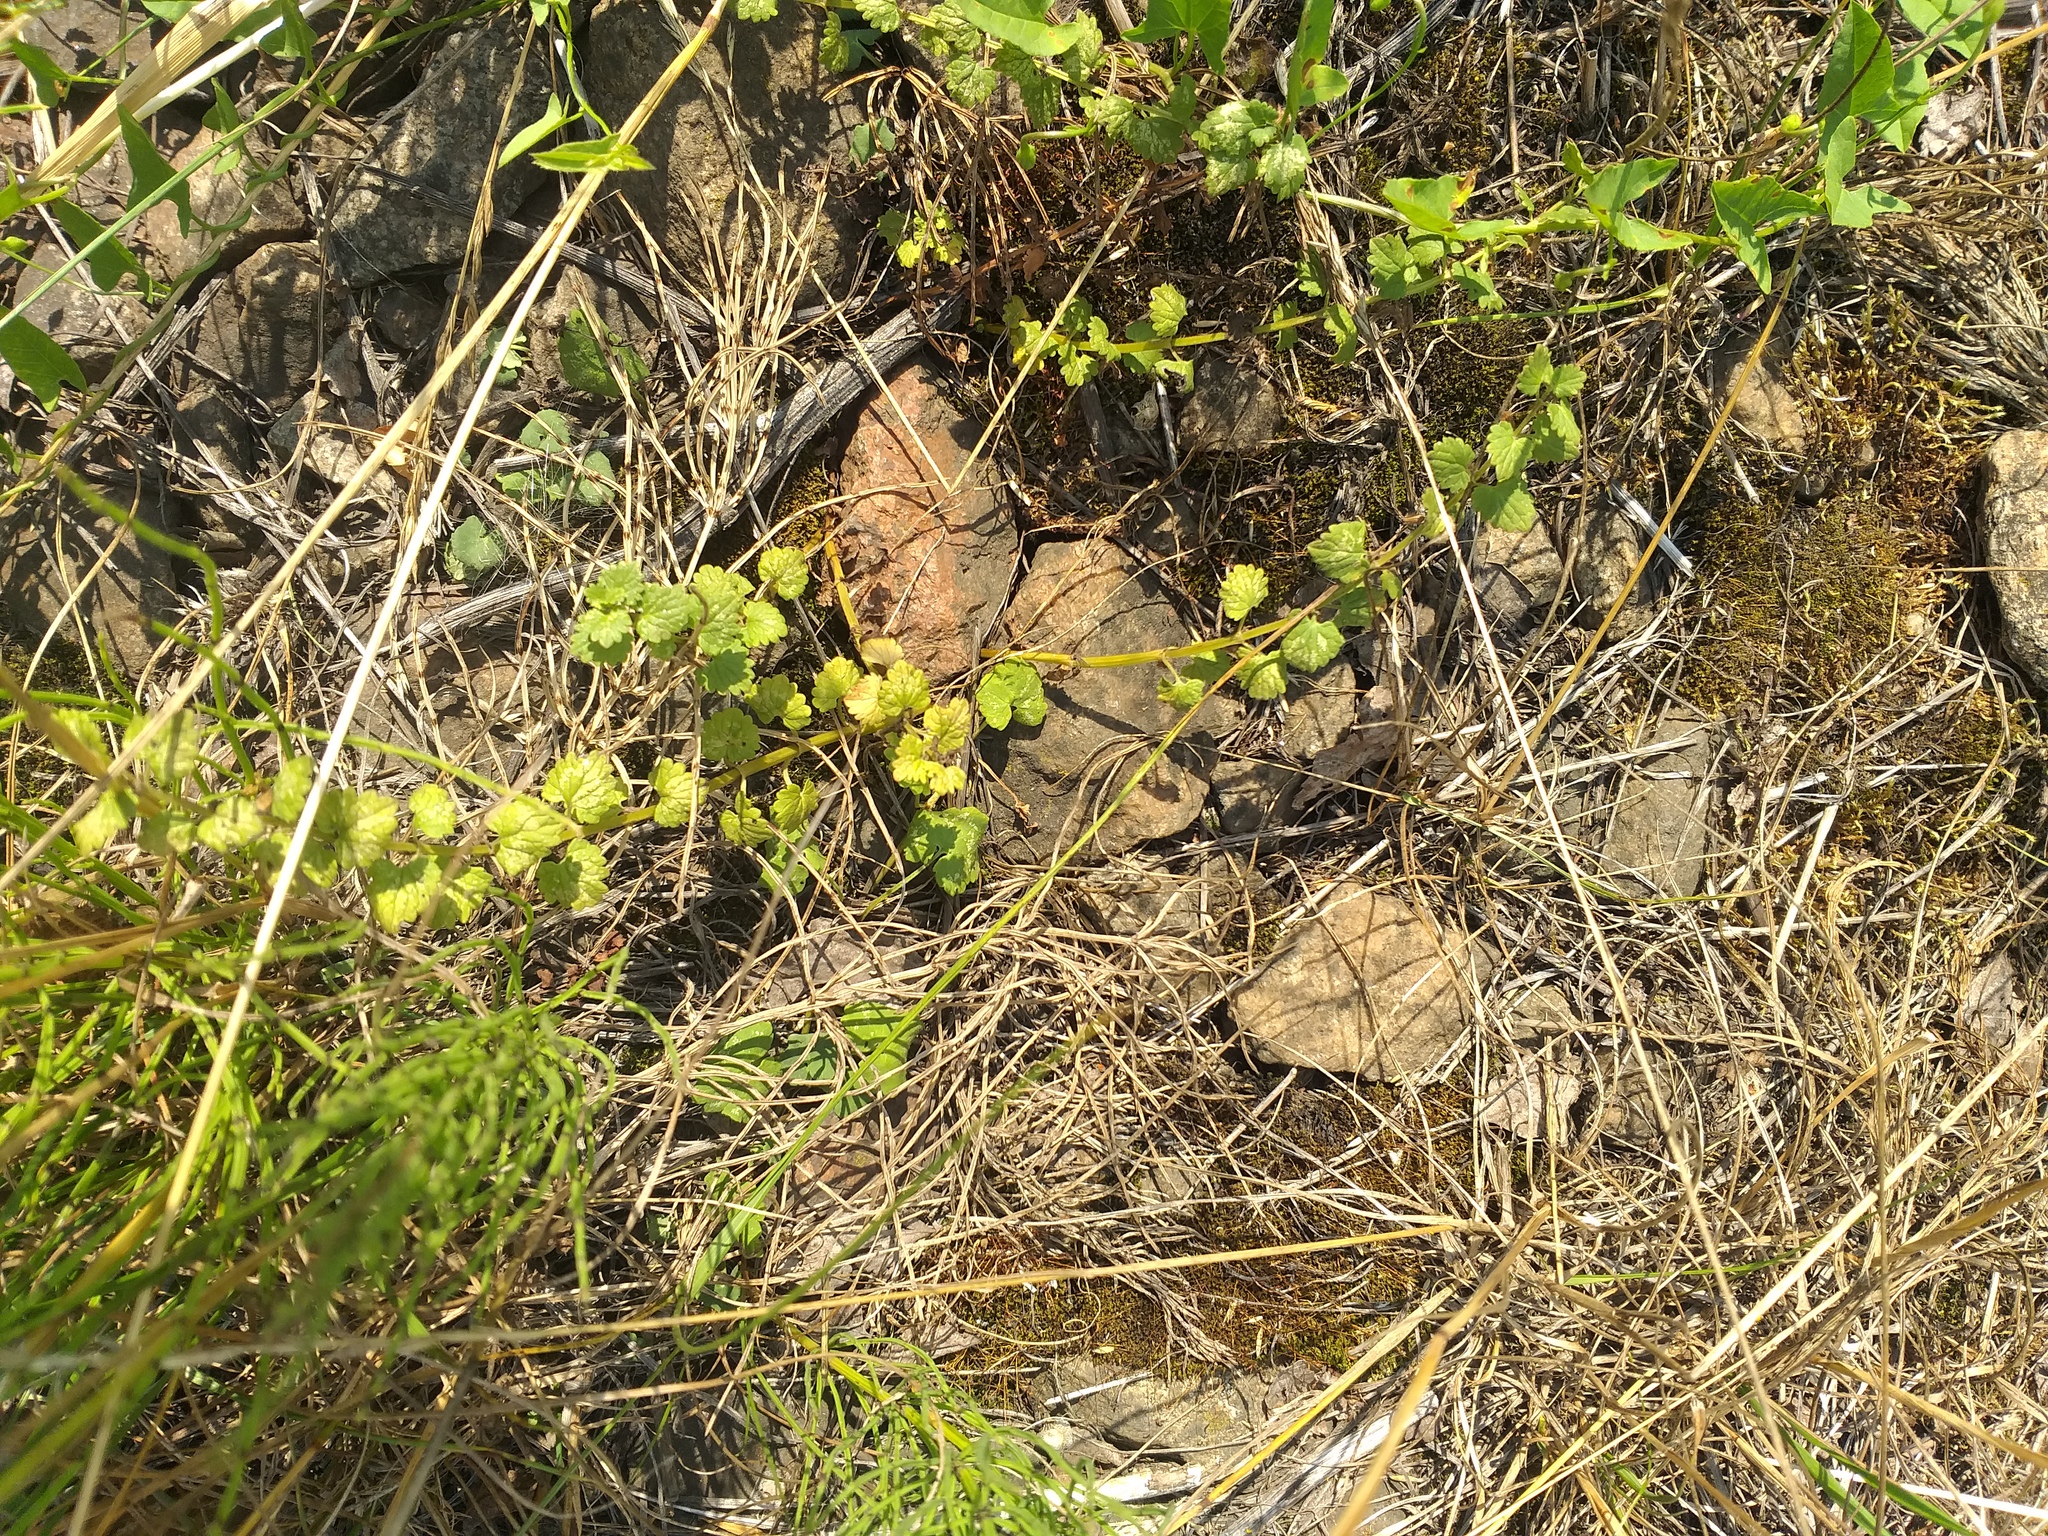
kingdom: Plantae
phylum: Tracheophyta
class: Magnoliopsida
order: Lamiales
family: Lamiaceae
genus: Glechoma
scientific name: Glechoma hederacea
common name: Ground ivy
